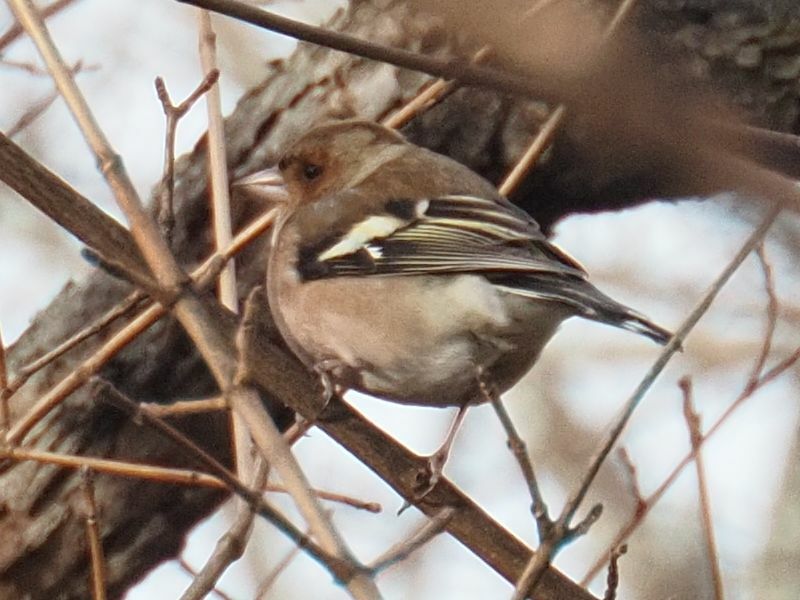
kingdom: Animalia
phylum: Chordata
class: Aves
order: Passeriformes
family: Fringillidae
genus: Fringilla
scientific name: Fringilla coelebs
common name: Common chaffinch
